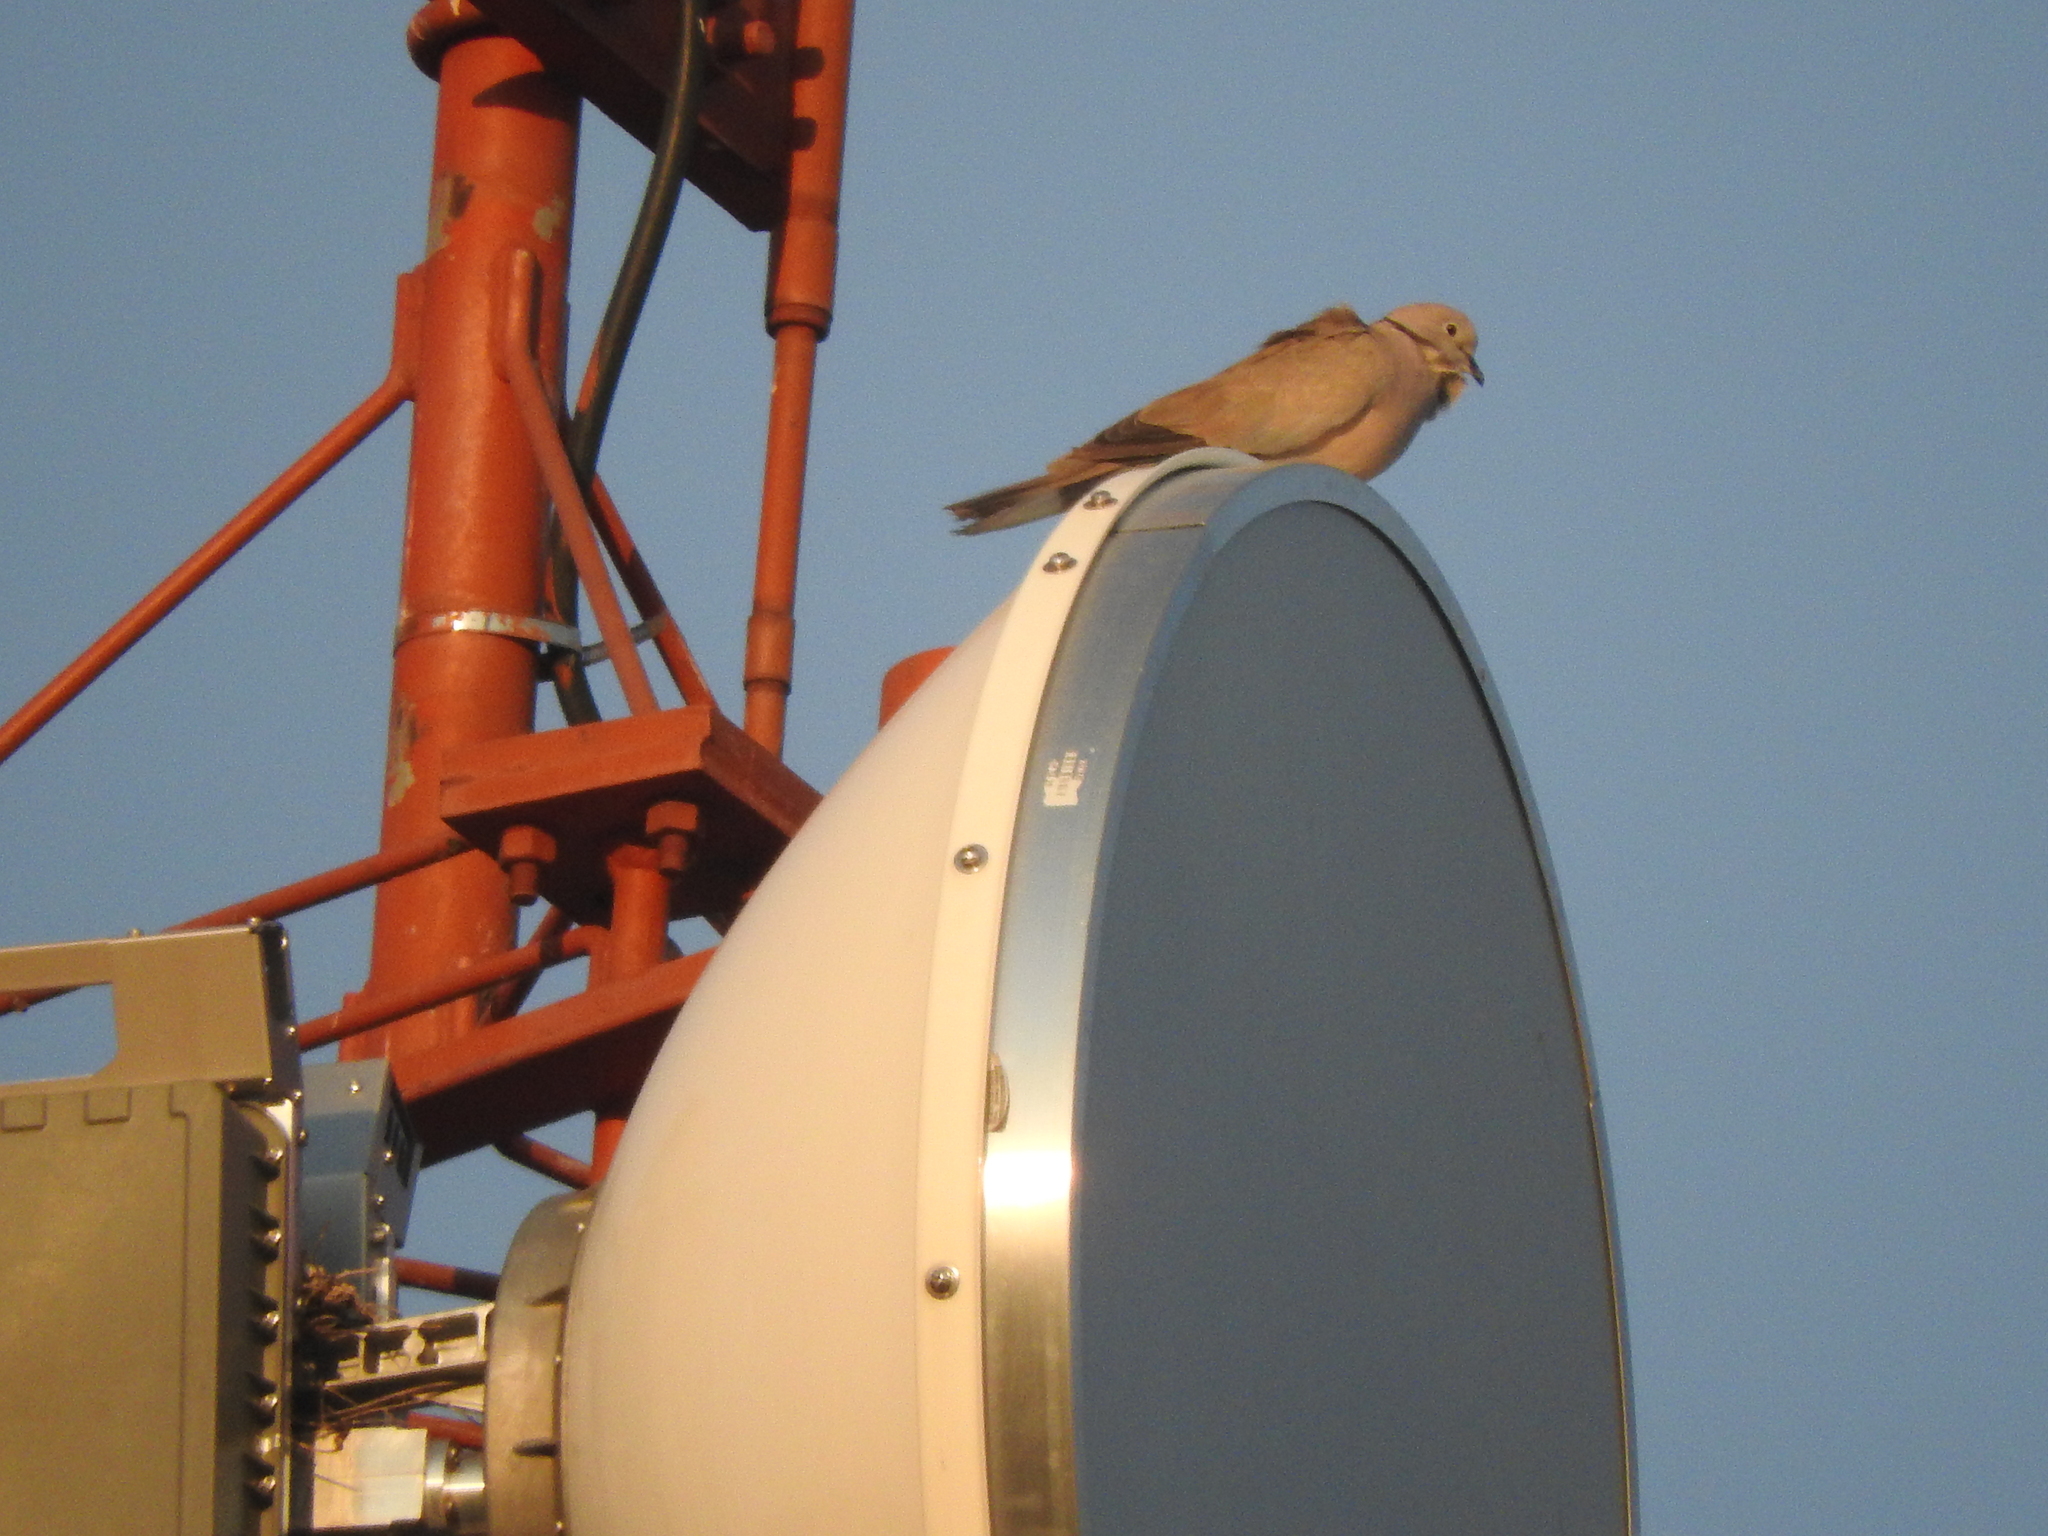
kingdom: Animalia
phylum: Chordata
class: Aves
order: Columbiformes
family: Columbidae
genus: Streptopelia
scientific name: Streptopelia decaocto
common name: Eurasian collared dove
